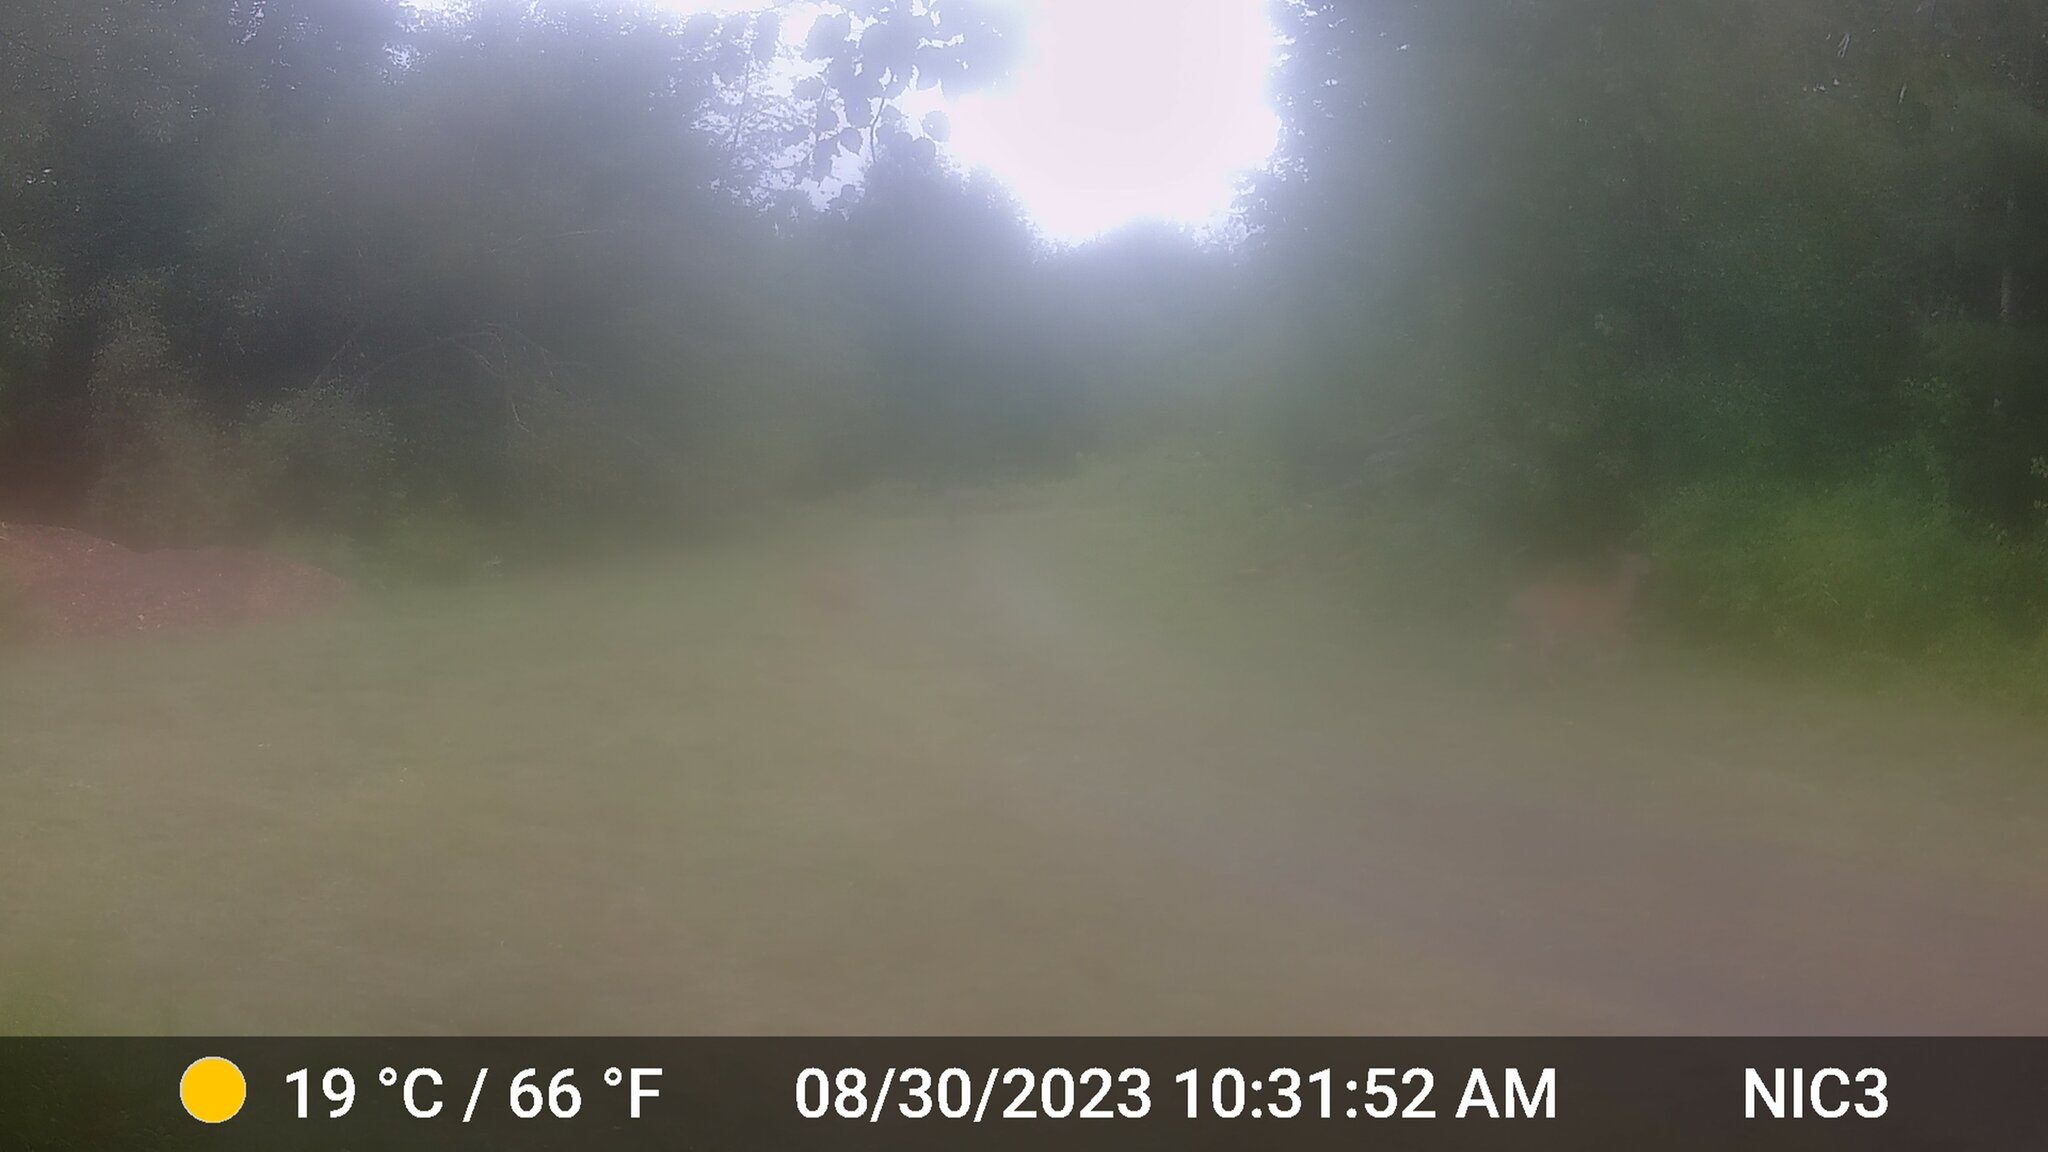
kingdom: Animalia
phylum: Chordata
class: Mammalia
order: Artiodactyla
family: Cervidae
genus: Odocoileus
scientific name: Odocoileus virginianus
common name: White-tailed deer
